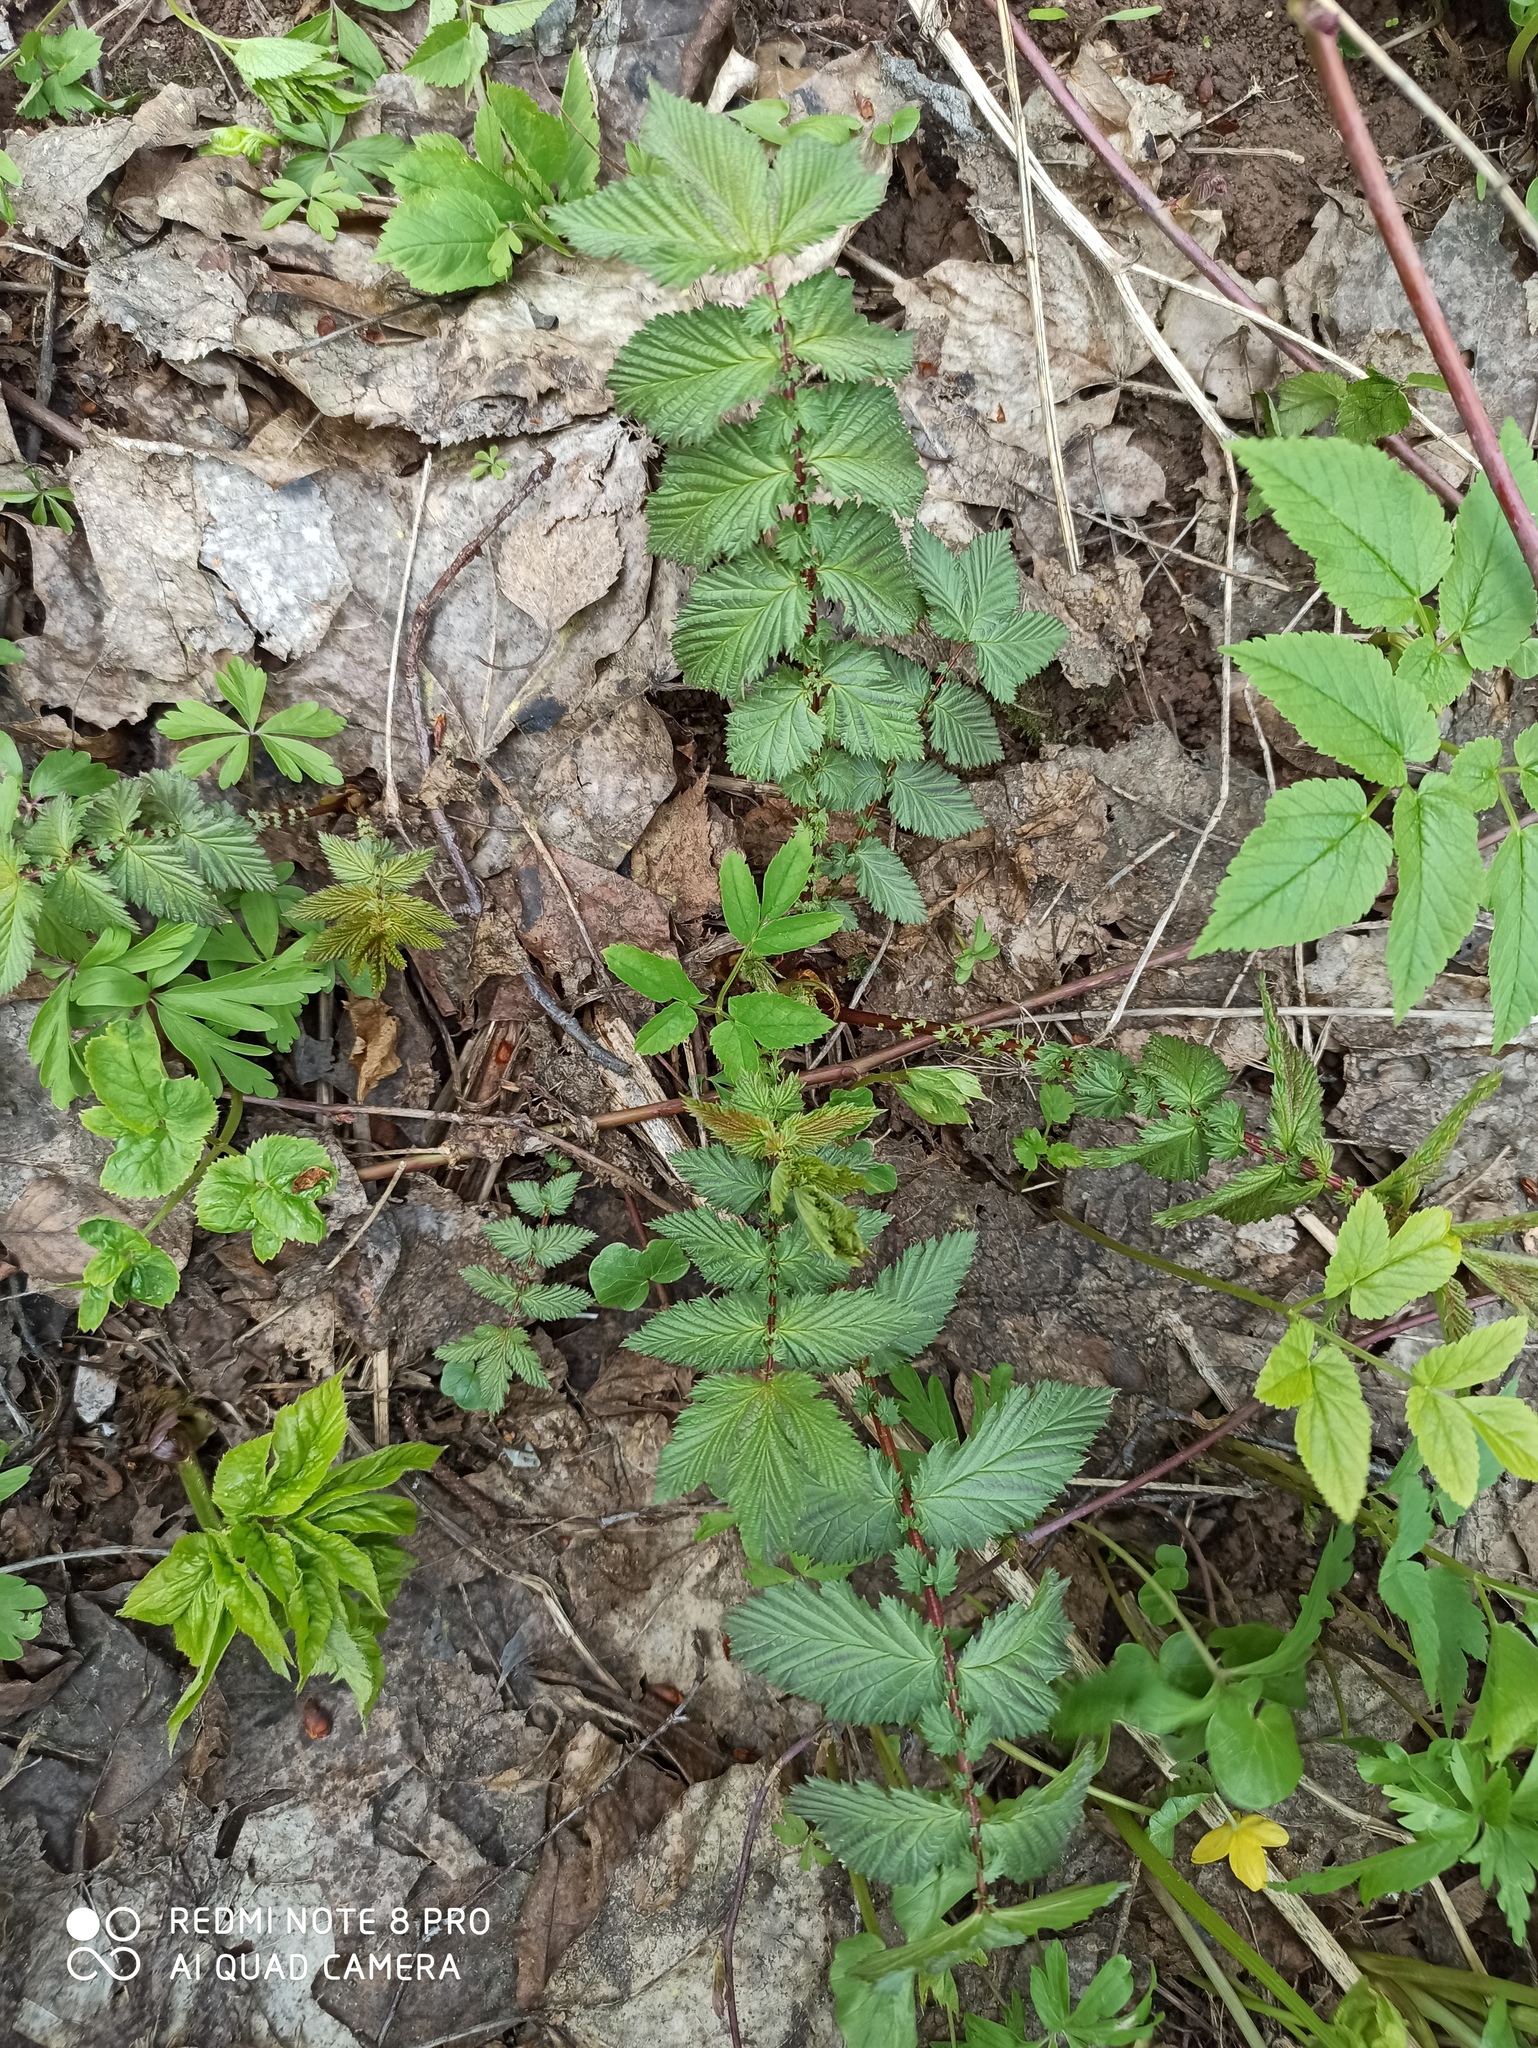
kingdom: Plantae
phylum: Tracheophyta
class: Magnoliopsida
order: Rosales
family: Rosaceae
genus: Filipendula
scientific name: Filipendula ulmaria
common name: Meadowsweet
